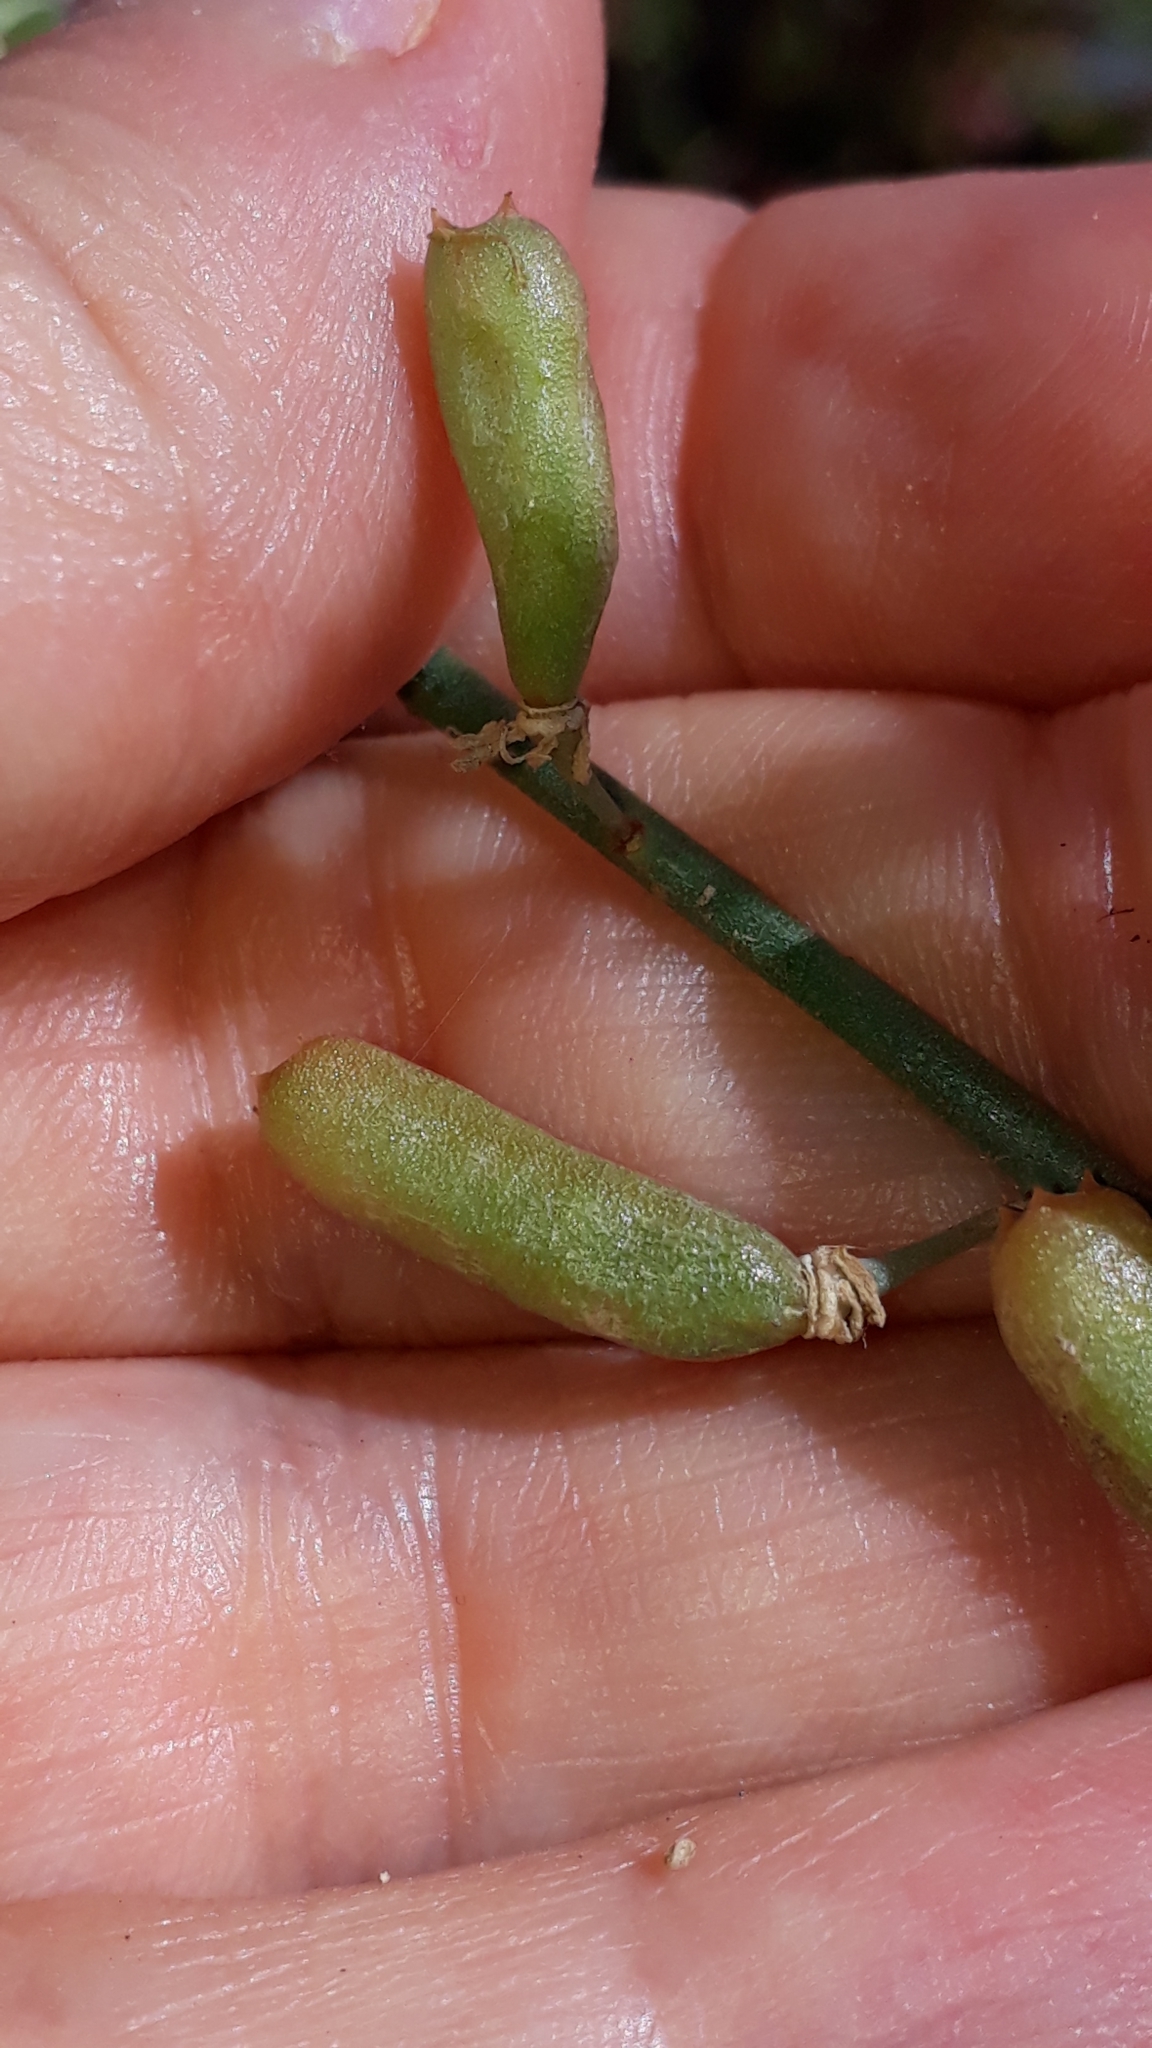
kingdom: Plantae
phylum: Tracheophyta
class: Magnoliopsida
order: Brassicales
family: Resedaceae
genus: Reseda
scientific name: Reseda scoparia
